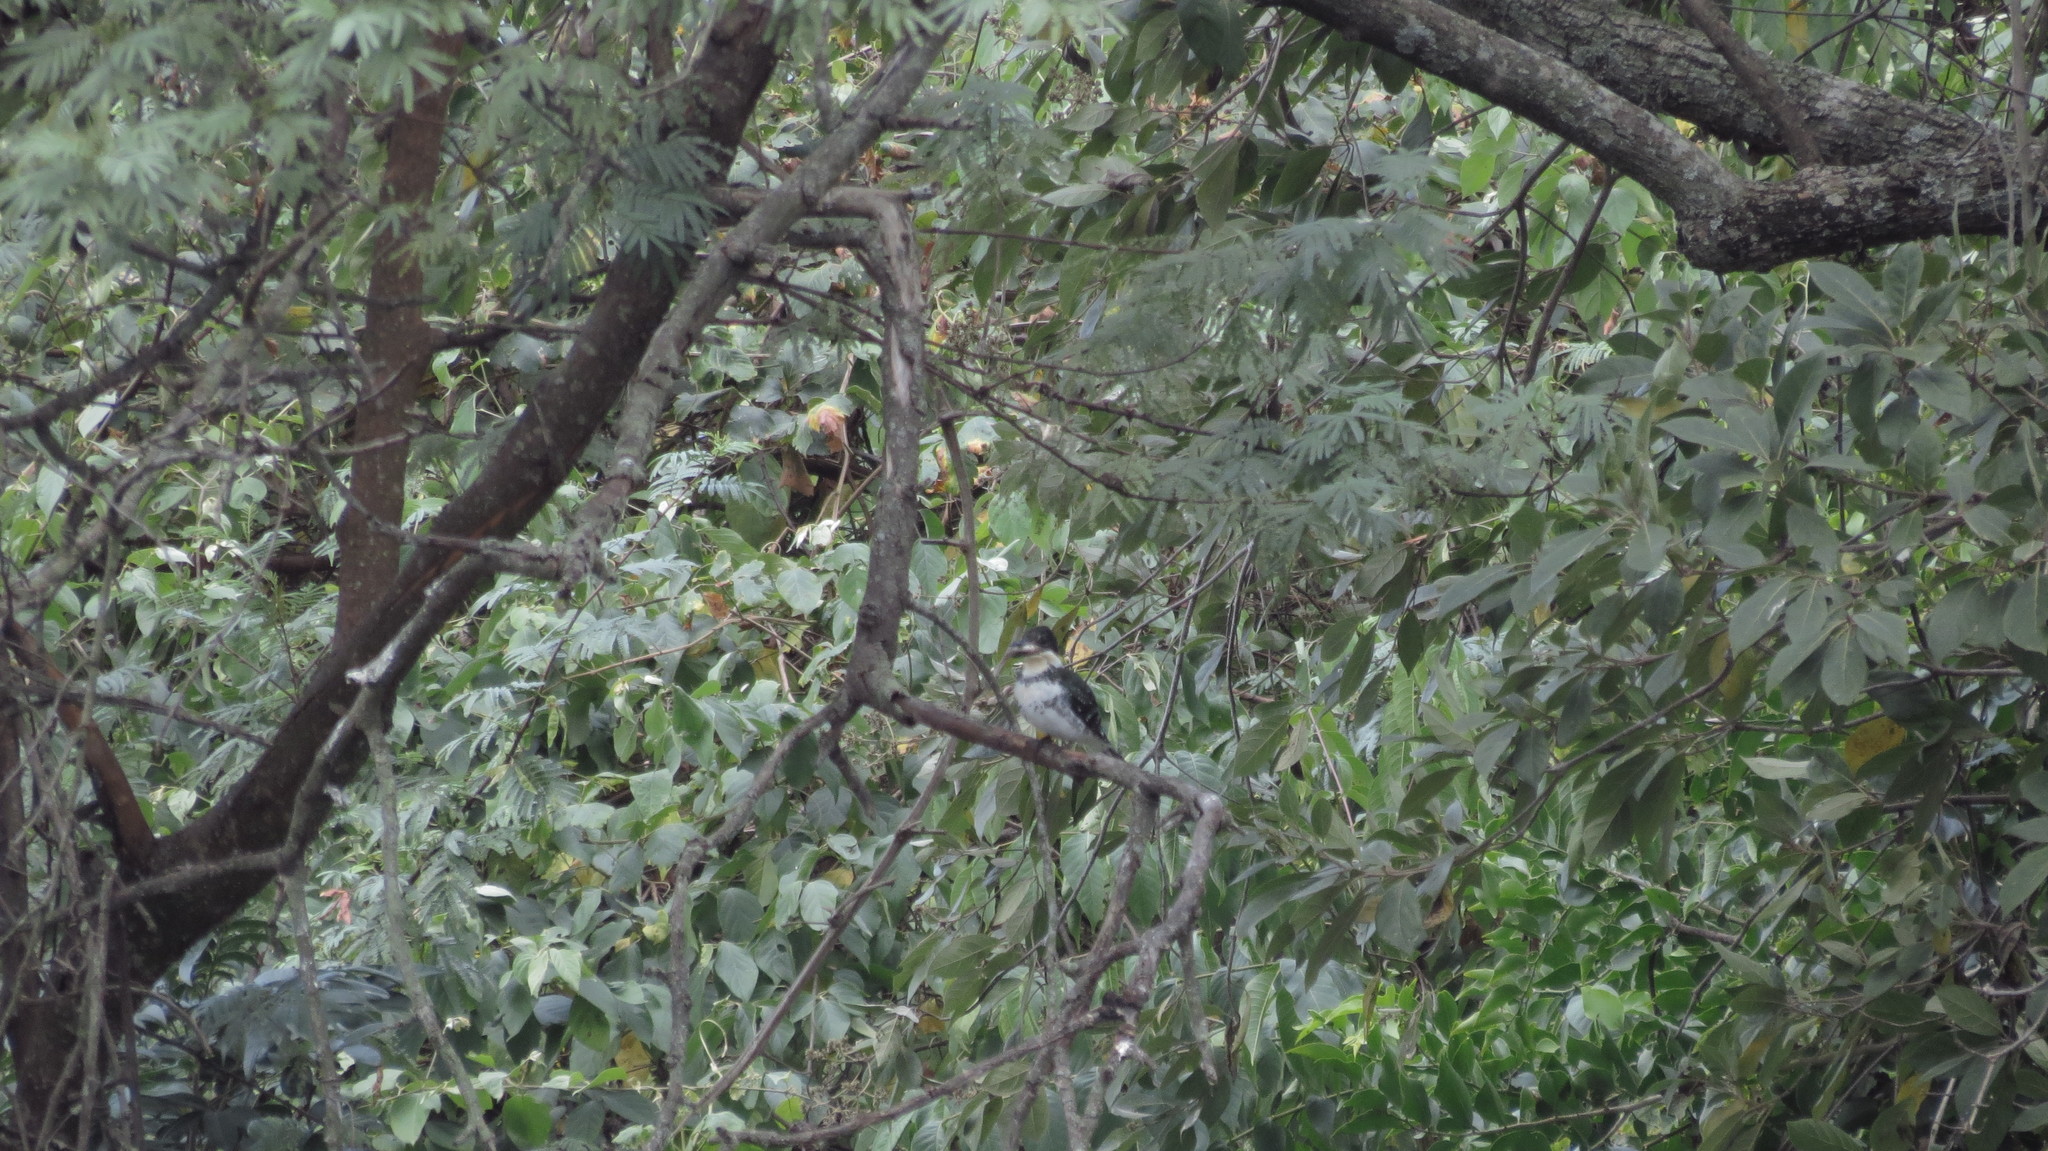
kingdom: Animalia
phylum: Chordata
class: Aves
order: Coraciiformes
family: Alcedinidae
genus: Chloroceryle
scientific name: Chloroceryle americana
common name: Green kingfisher
